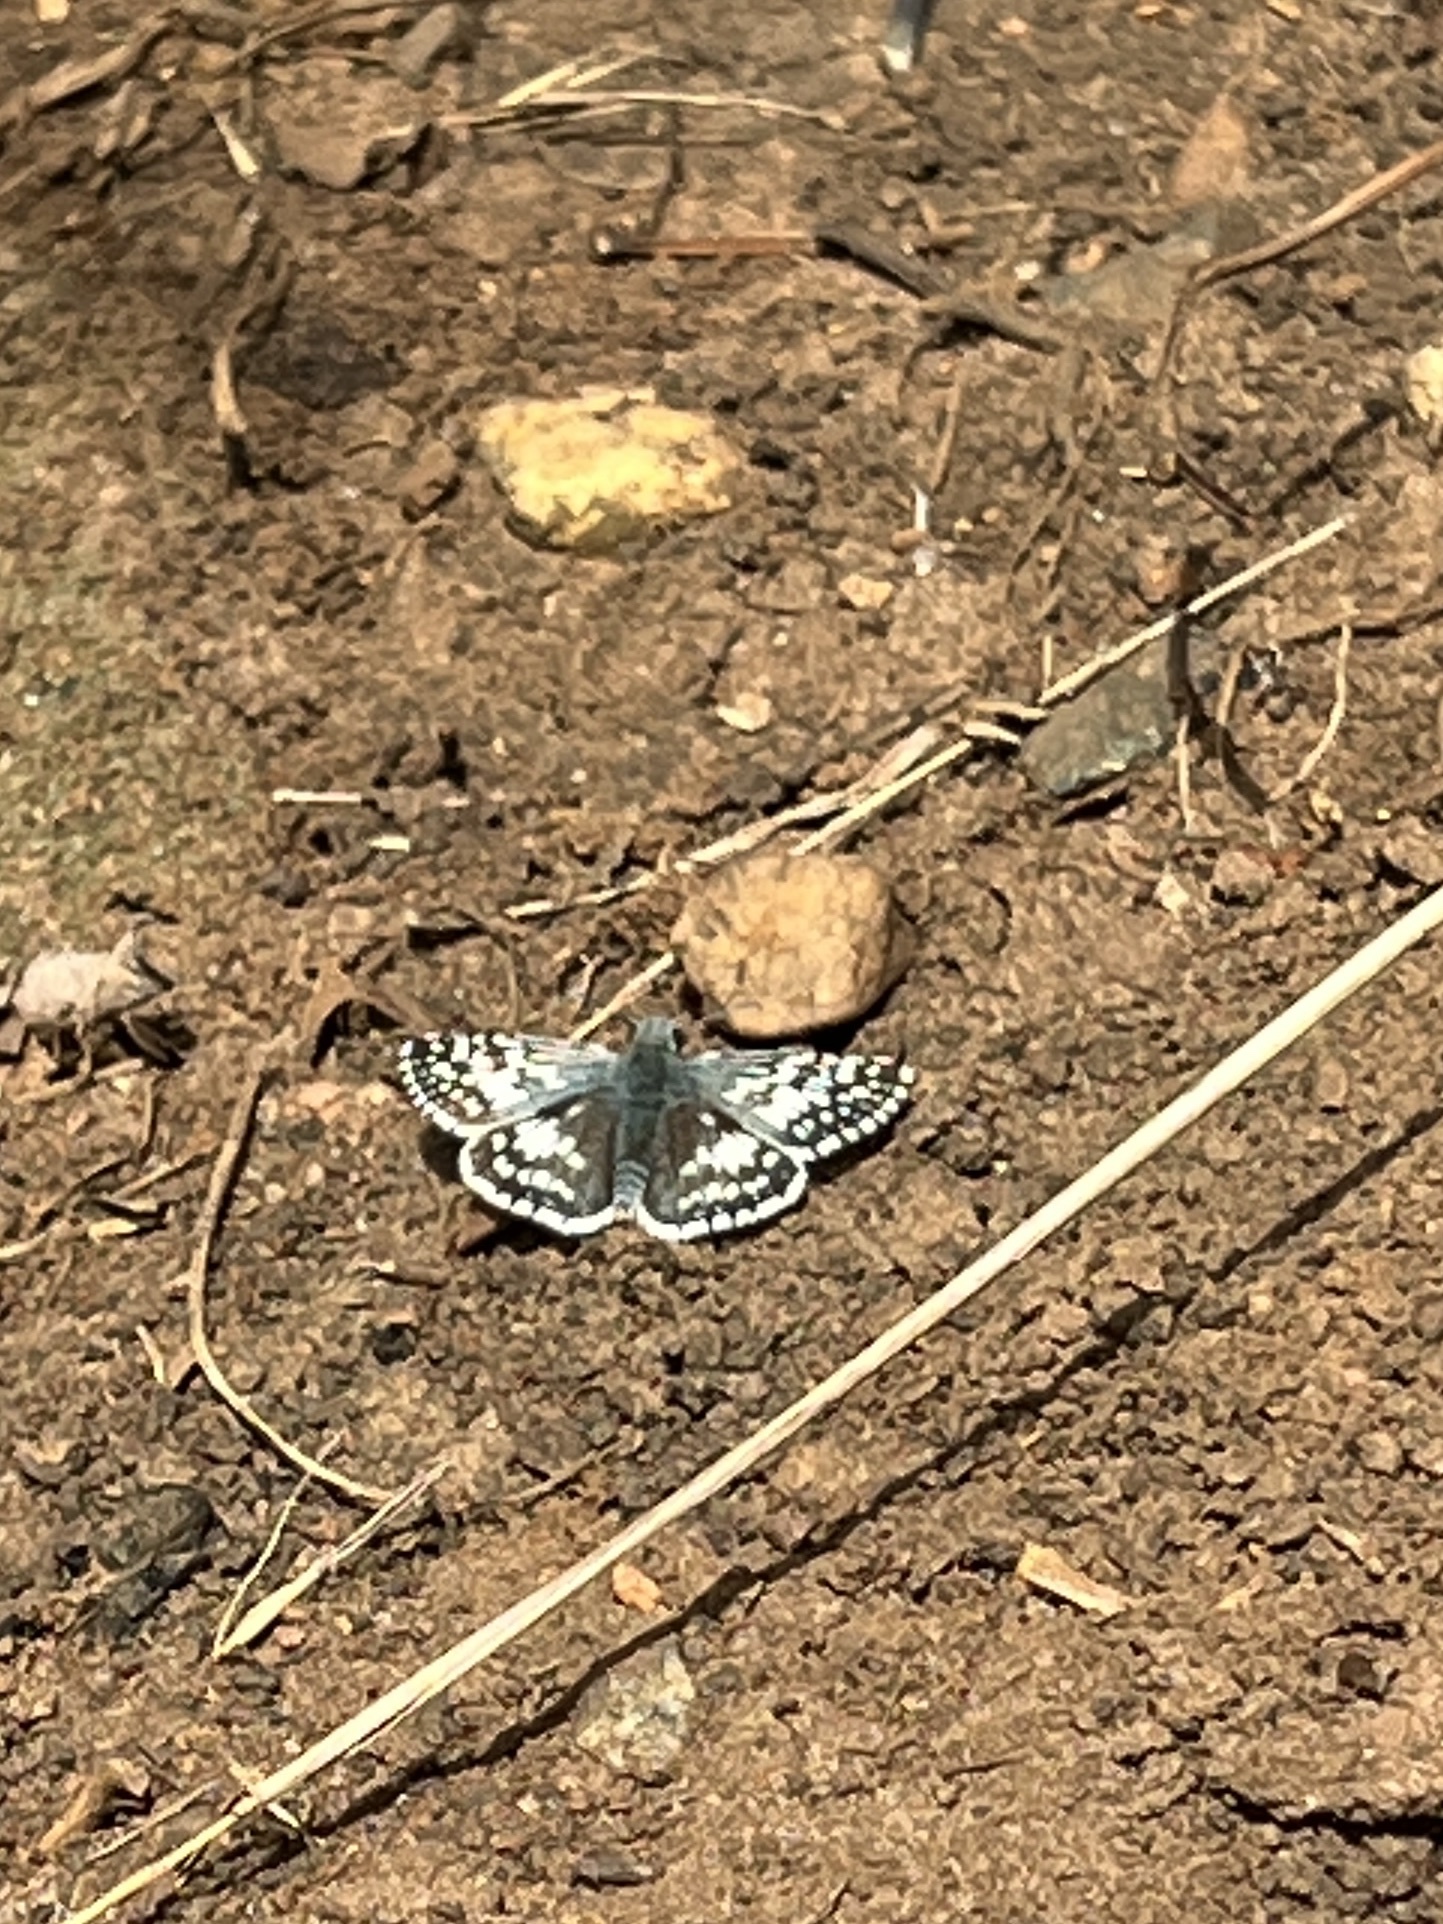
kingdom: Animalia
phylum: Arthropoda
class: Insecta
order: Lepidoptera
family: Hesperiidae
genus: Burnsius
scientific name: Burnsius communis
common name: Common checkered-skipper
